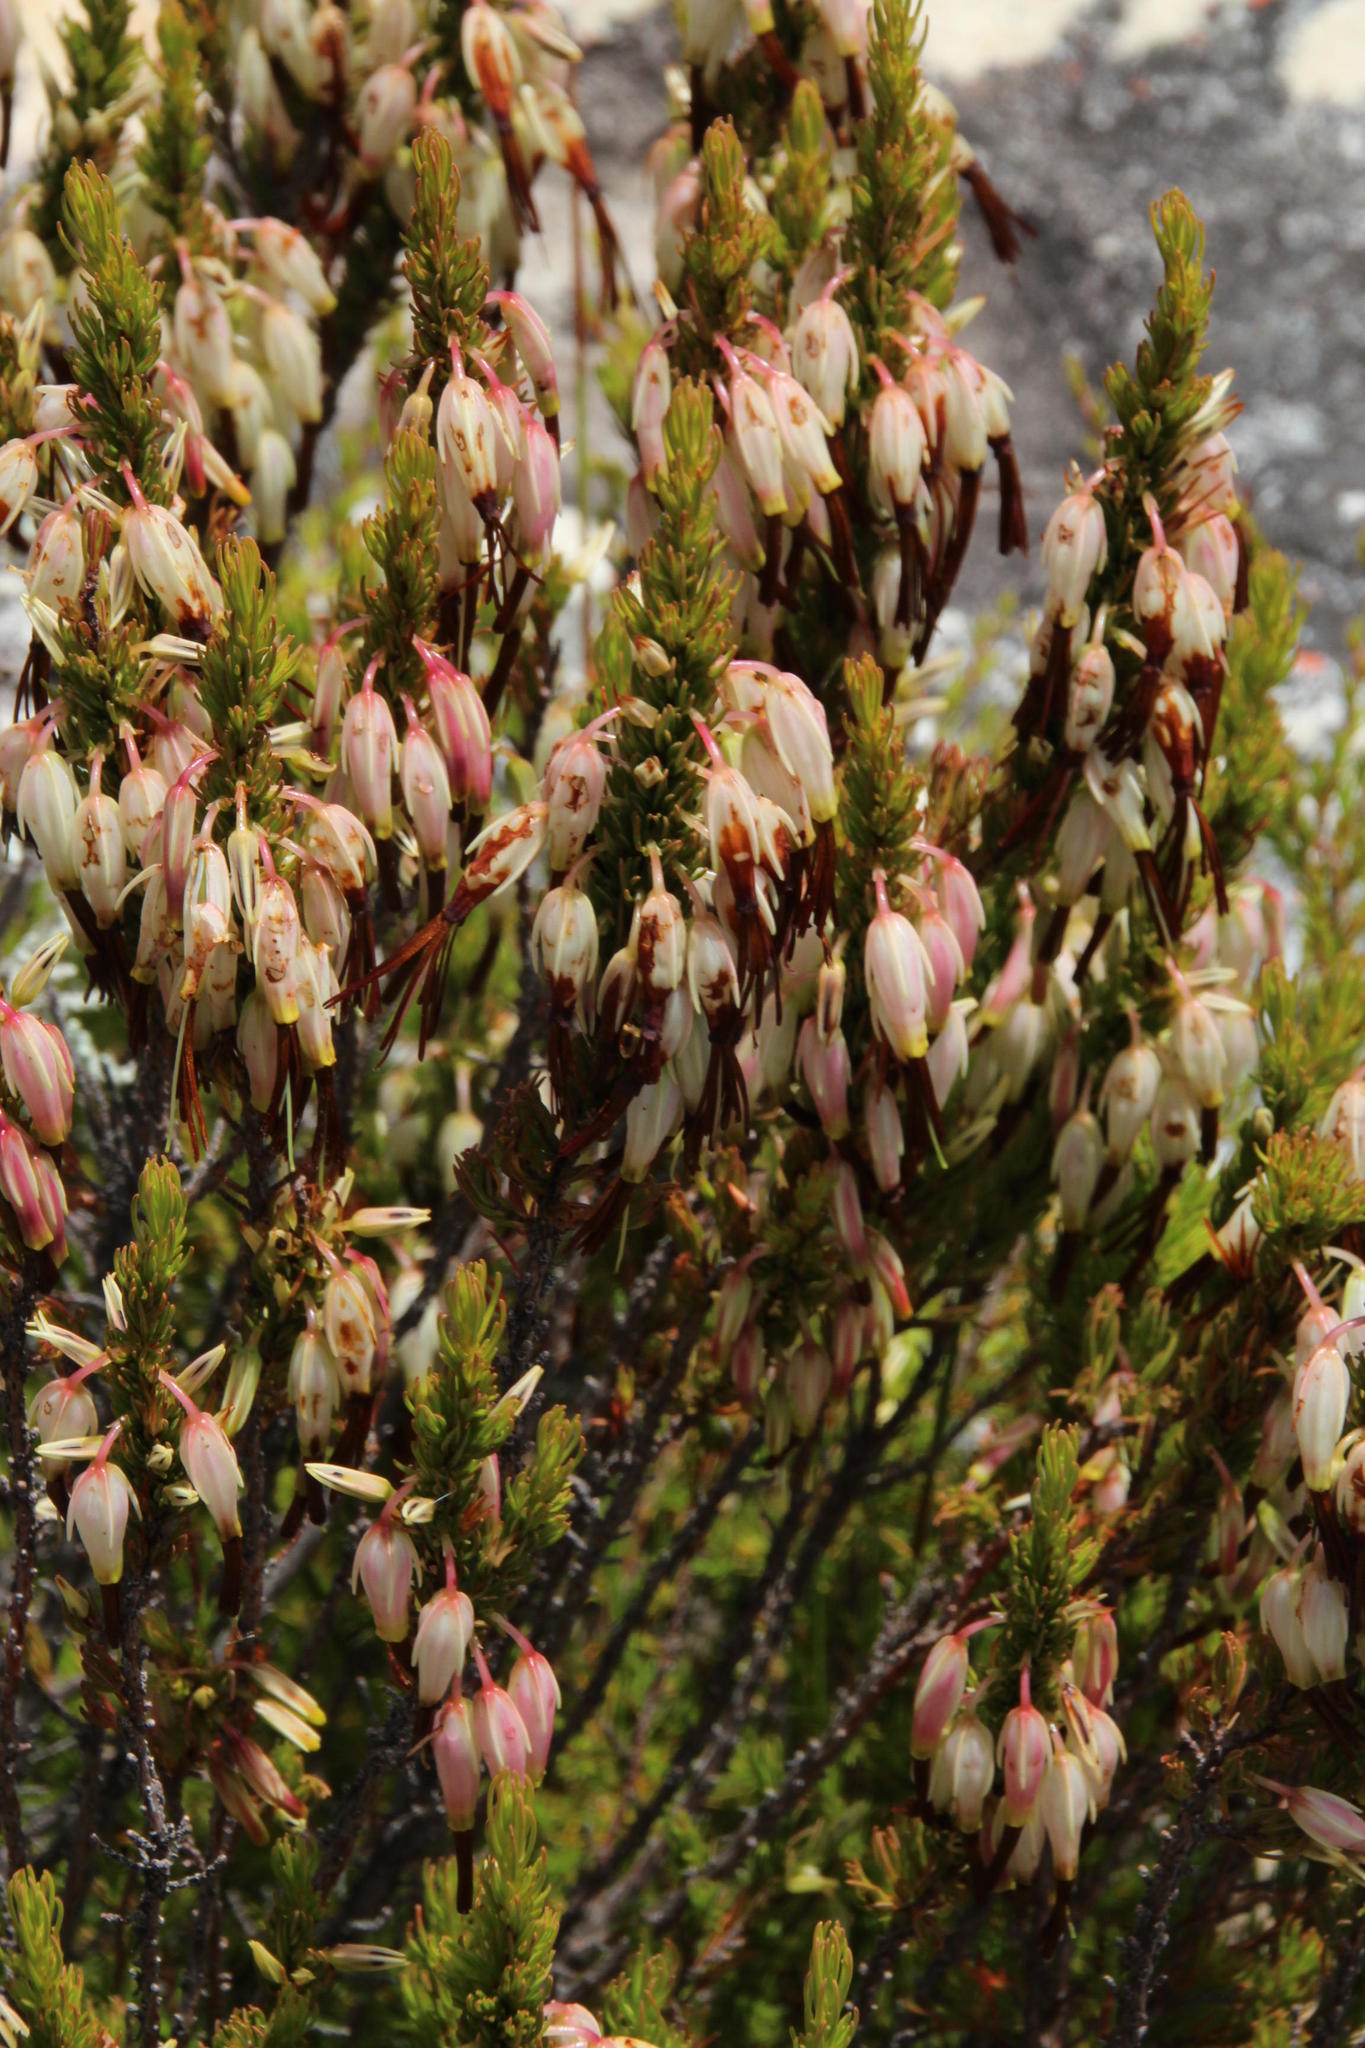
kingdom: Plantae
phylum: Tracheophyta
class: Magnoliopsida
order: Ericales
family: Ericaceae
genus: Erica
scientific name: Erica plukenetii
